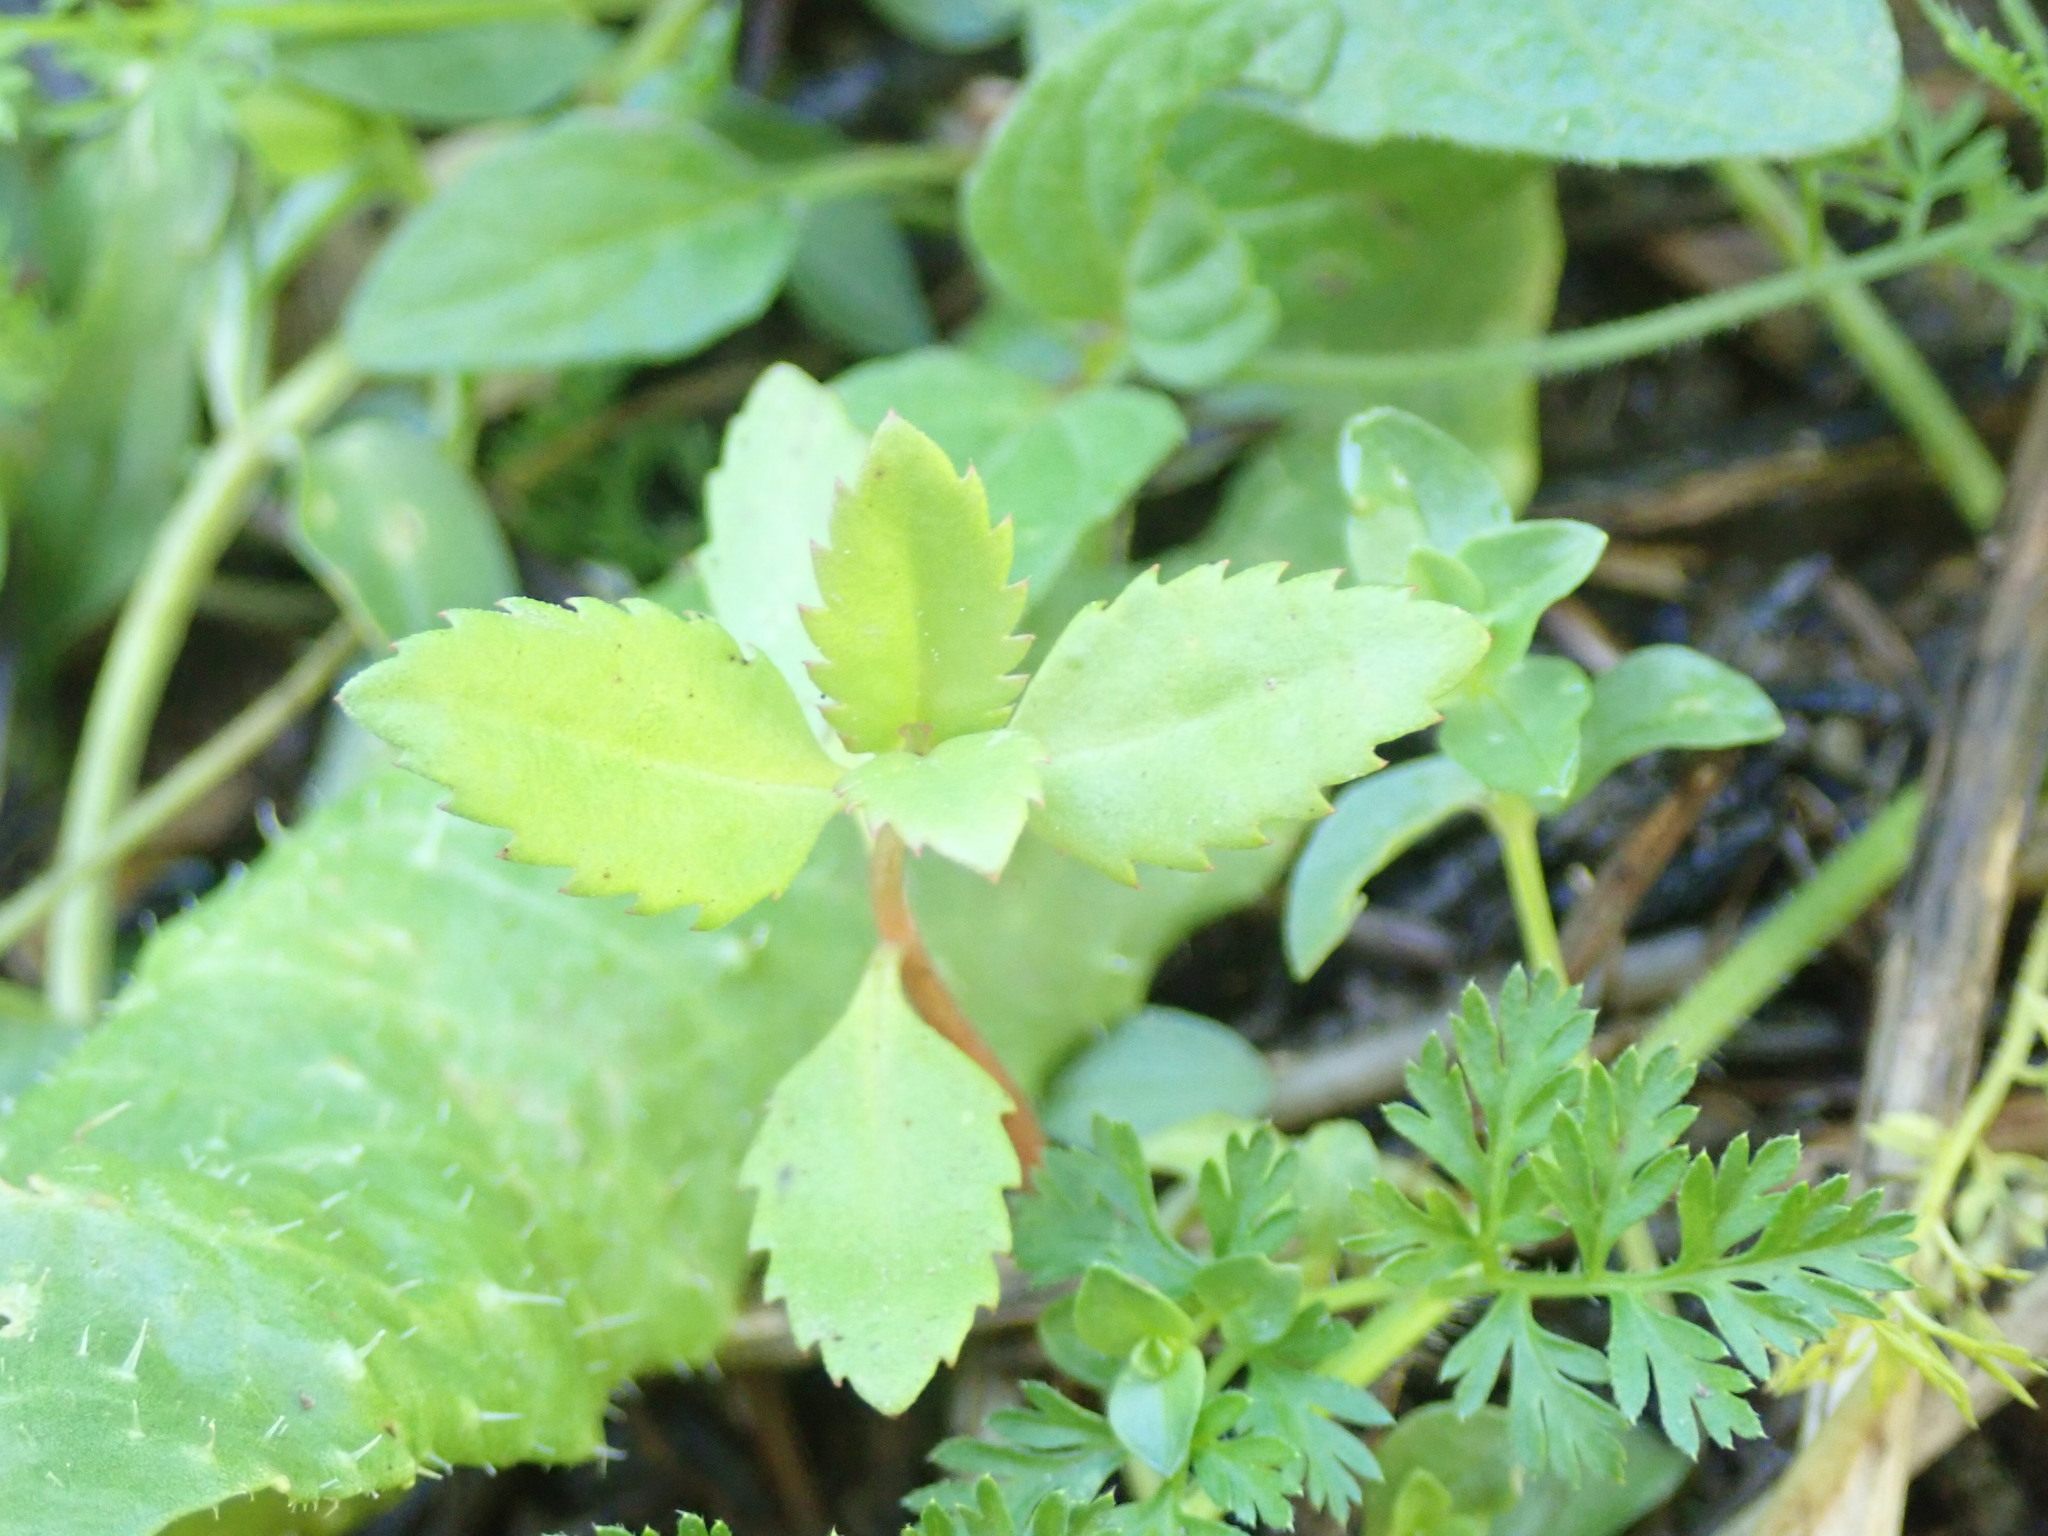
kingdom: Plantae
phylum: Tracheophyta
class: Magnoliopsida
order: Saxifragales
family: Haloragaceae
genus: Haloragis
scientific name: Haloragis erecta
